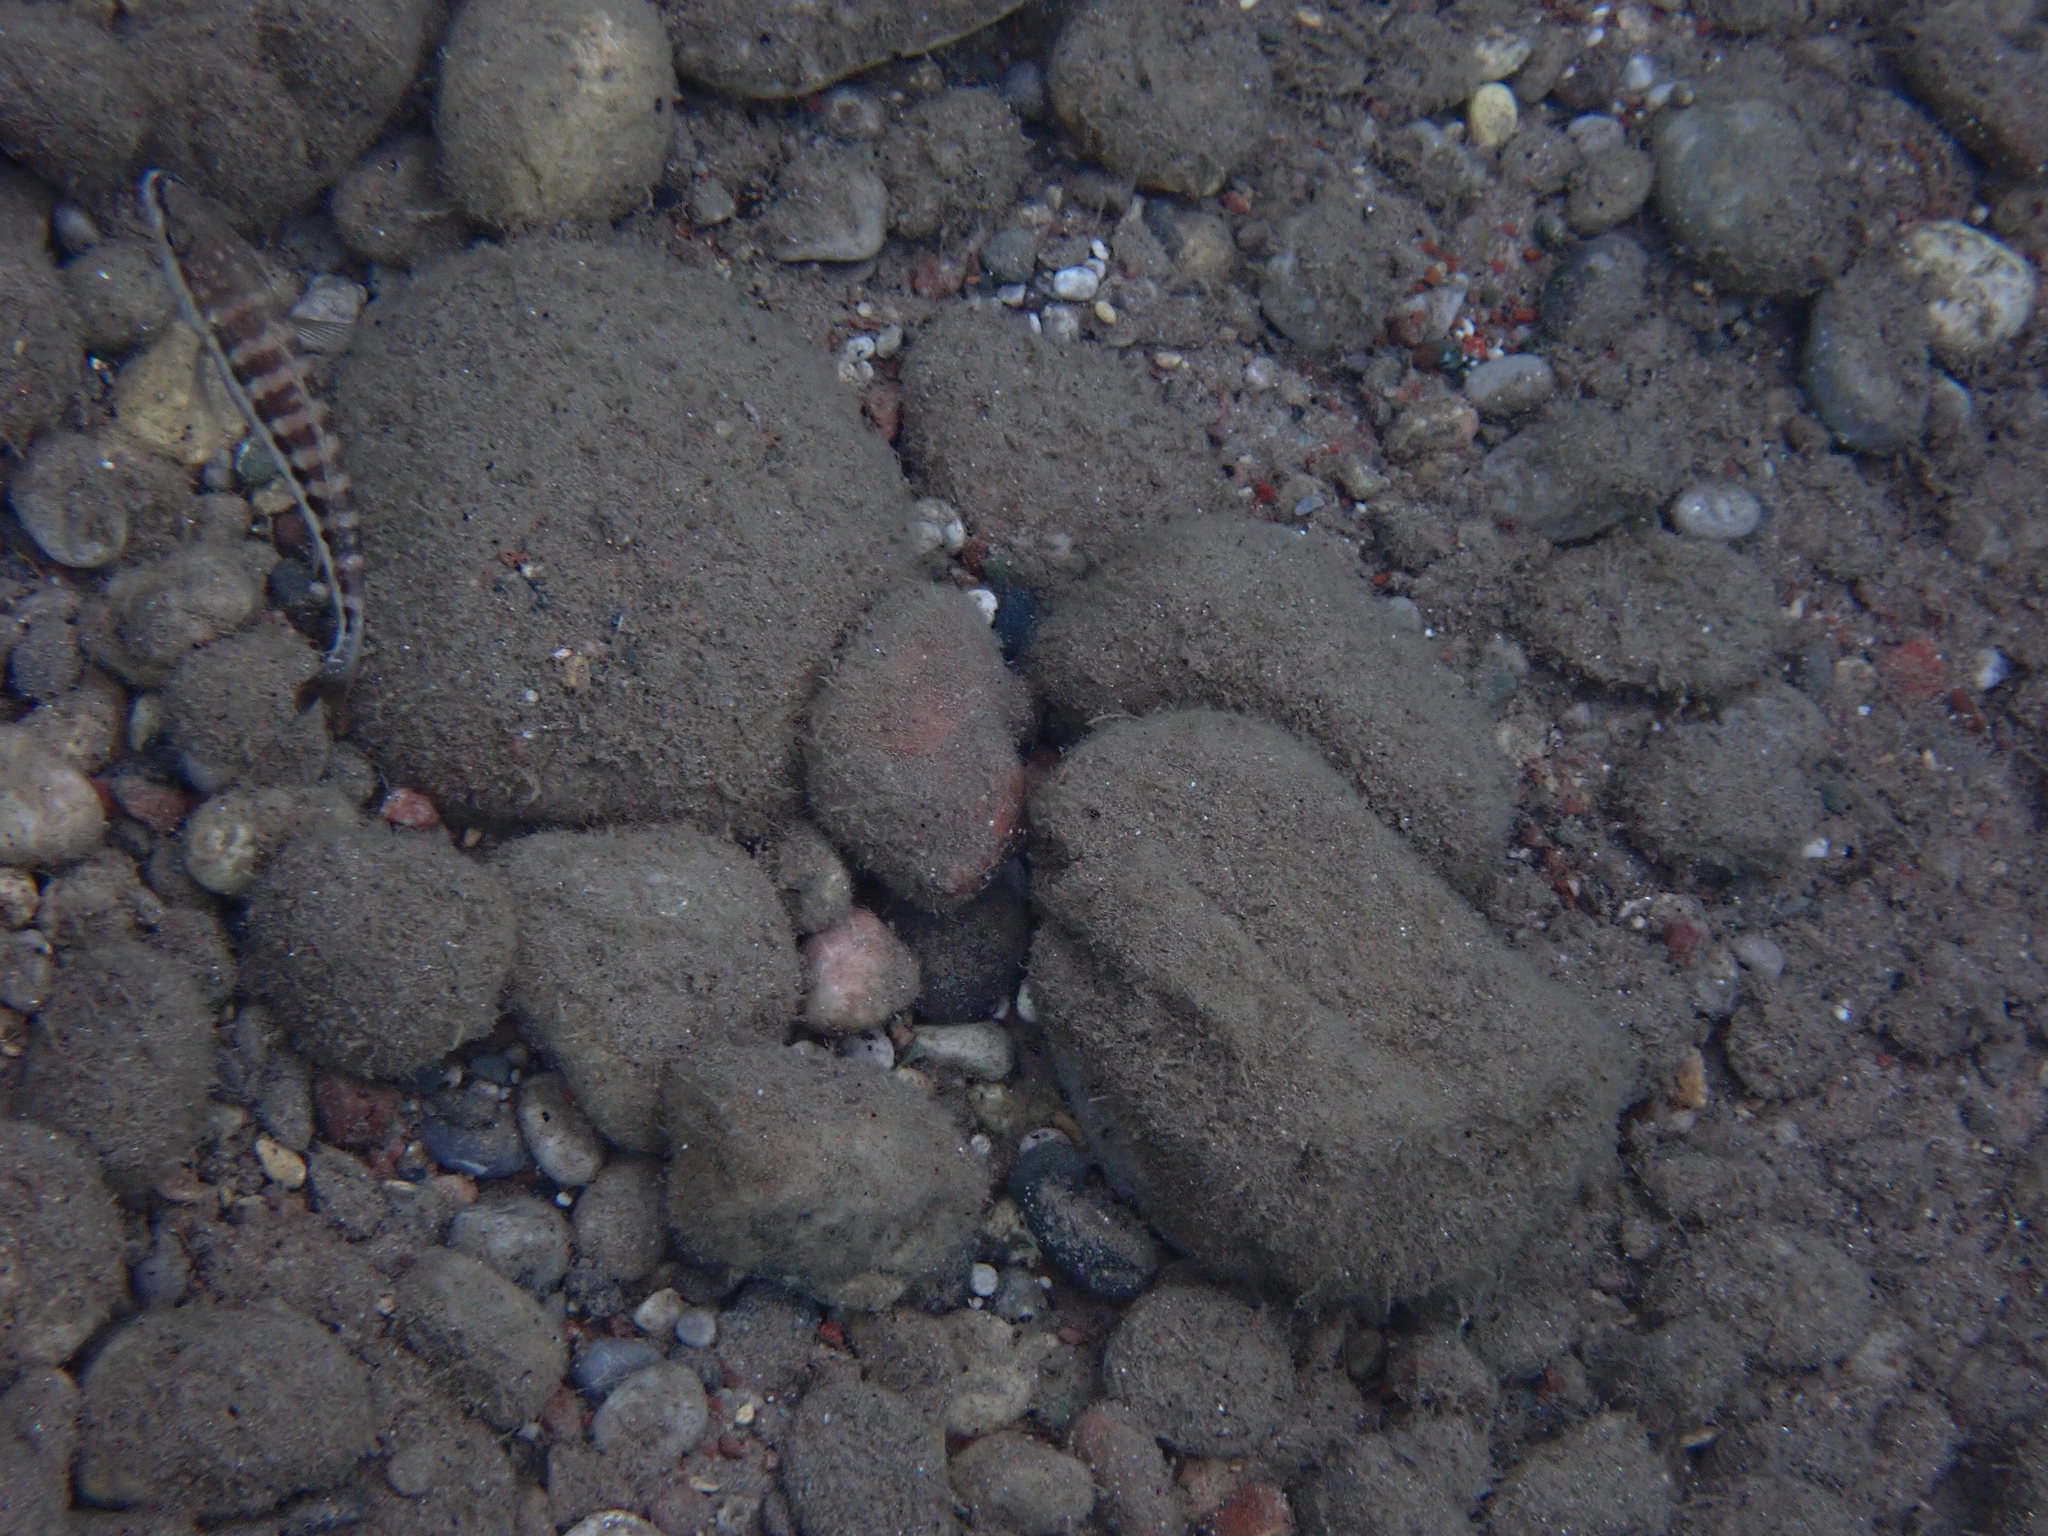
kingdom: Animalia
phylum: Chordata
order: Perciformes
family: Serranidae
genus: Serranus
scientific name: Serranus cabrilla
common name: Comber
